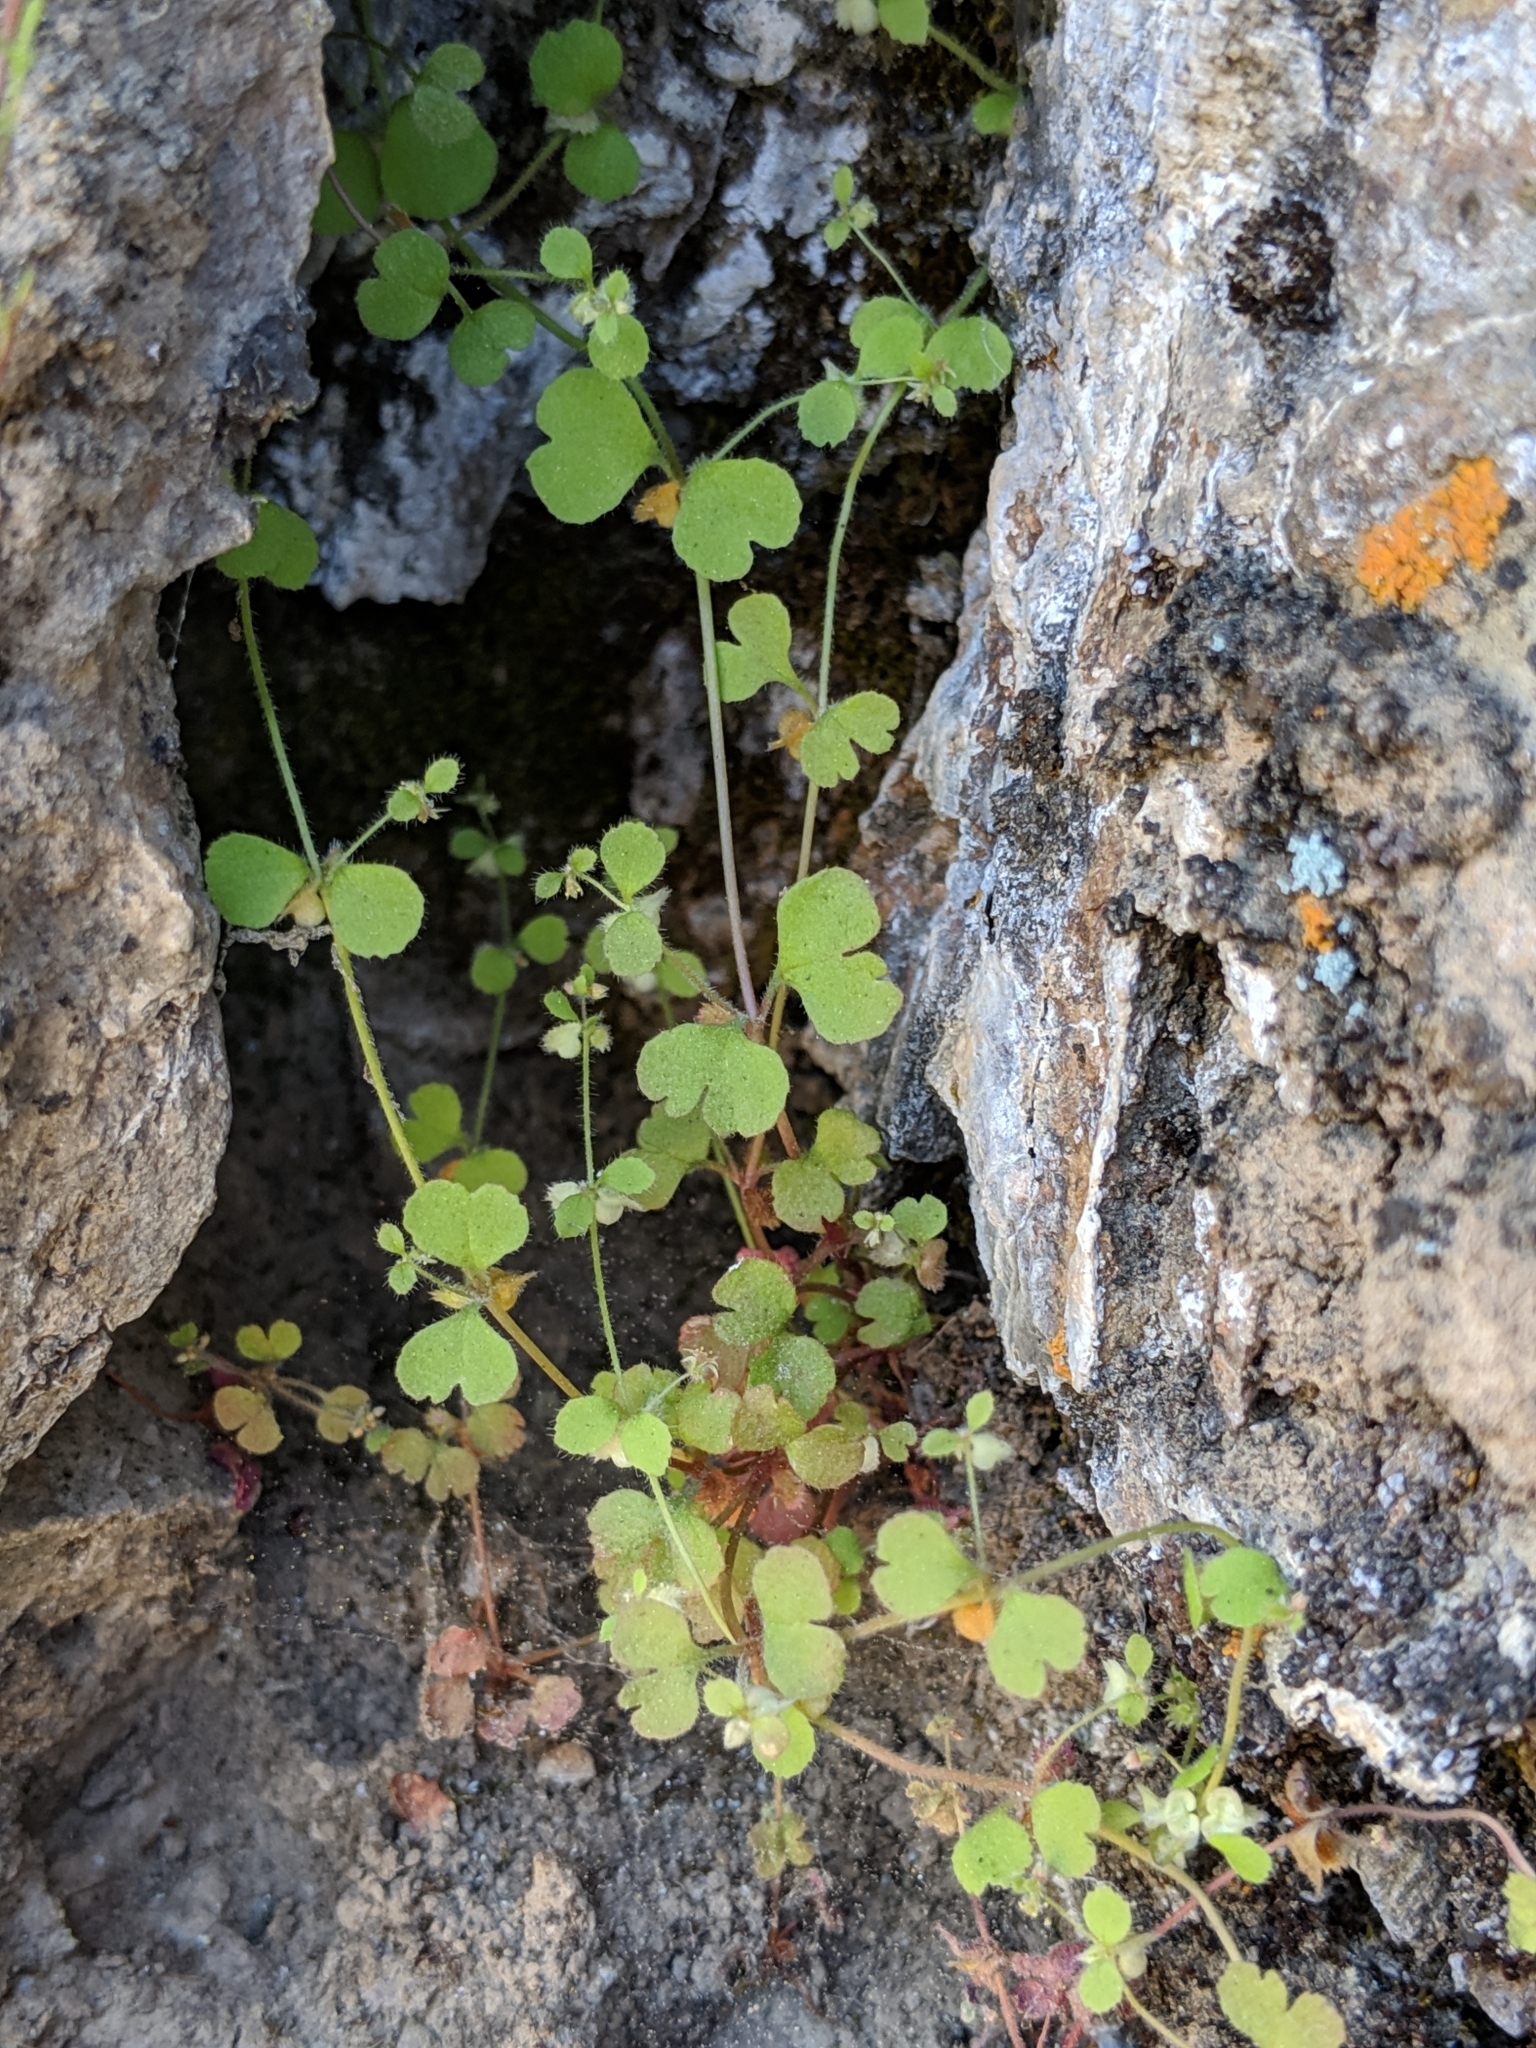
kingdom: Plantae
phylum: Tracheophyta
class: Magnoliopsida
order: Caryophyllales
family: Polygonaceae
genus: Pterostegia
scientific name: Pterostegia drymarioides
